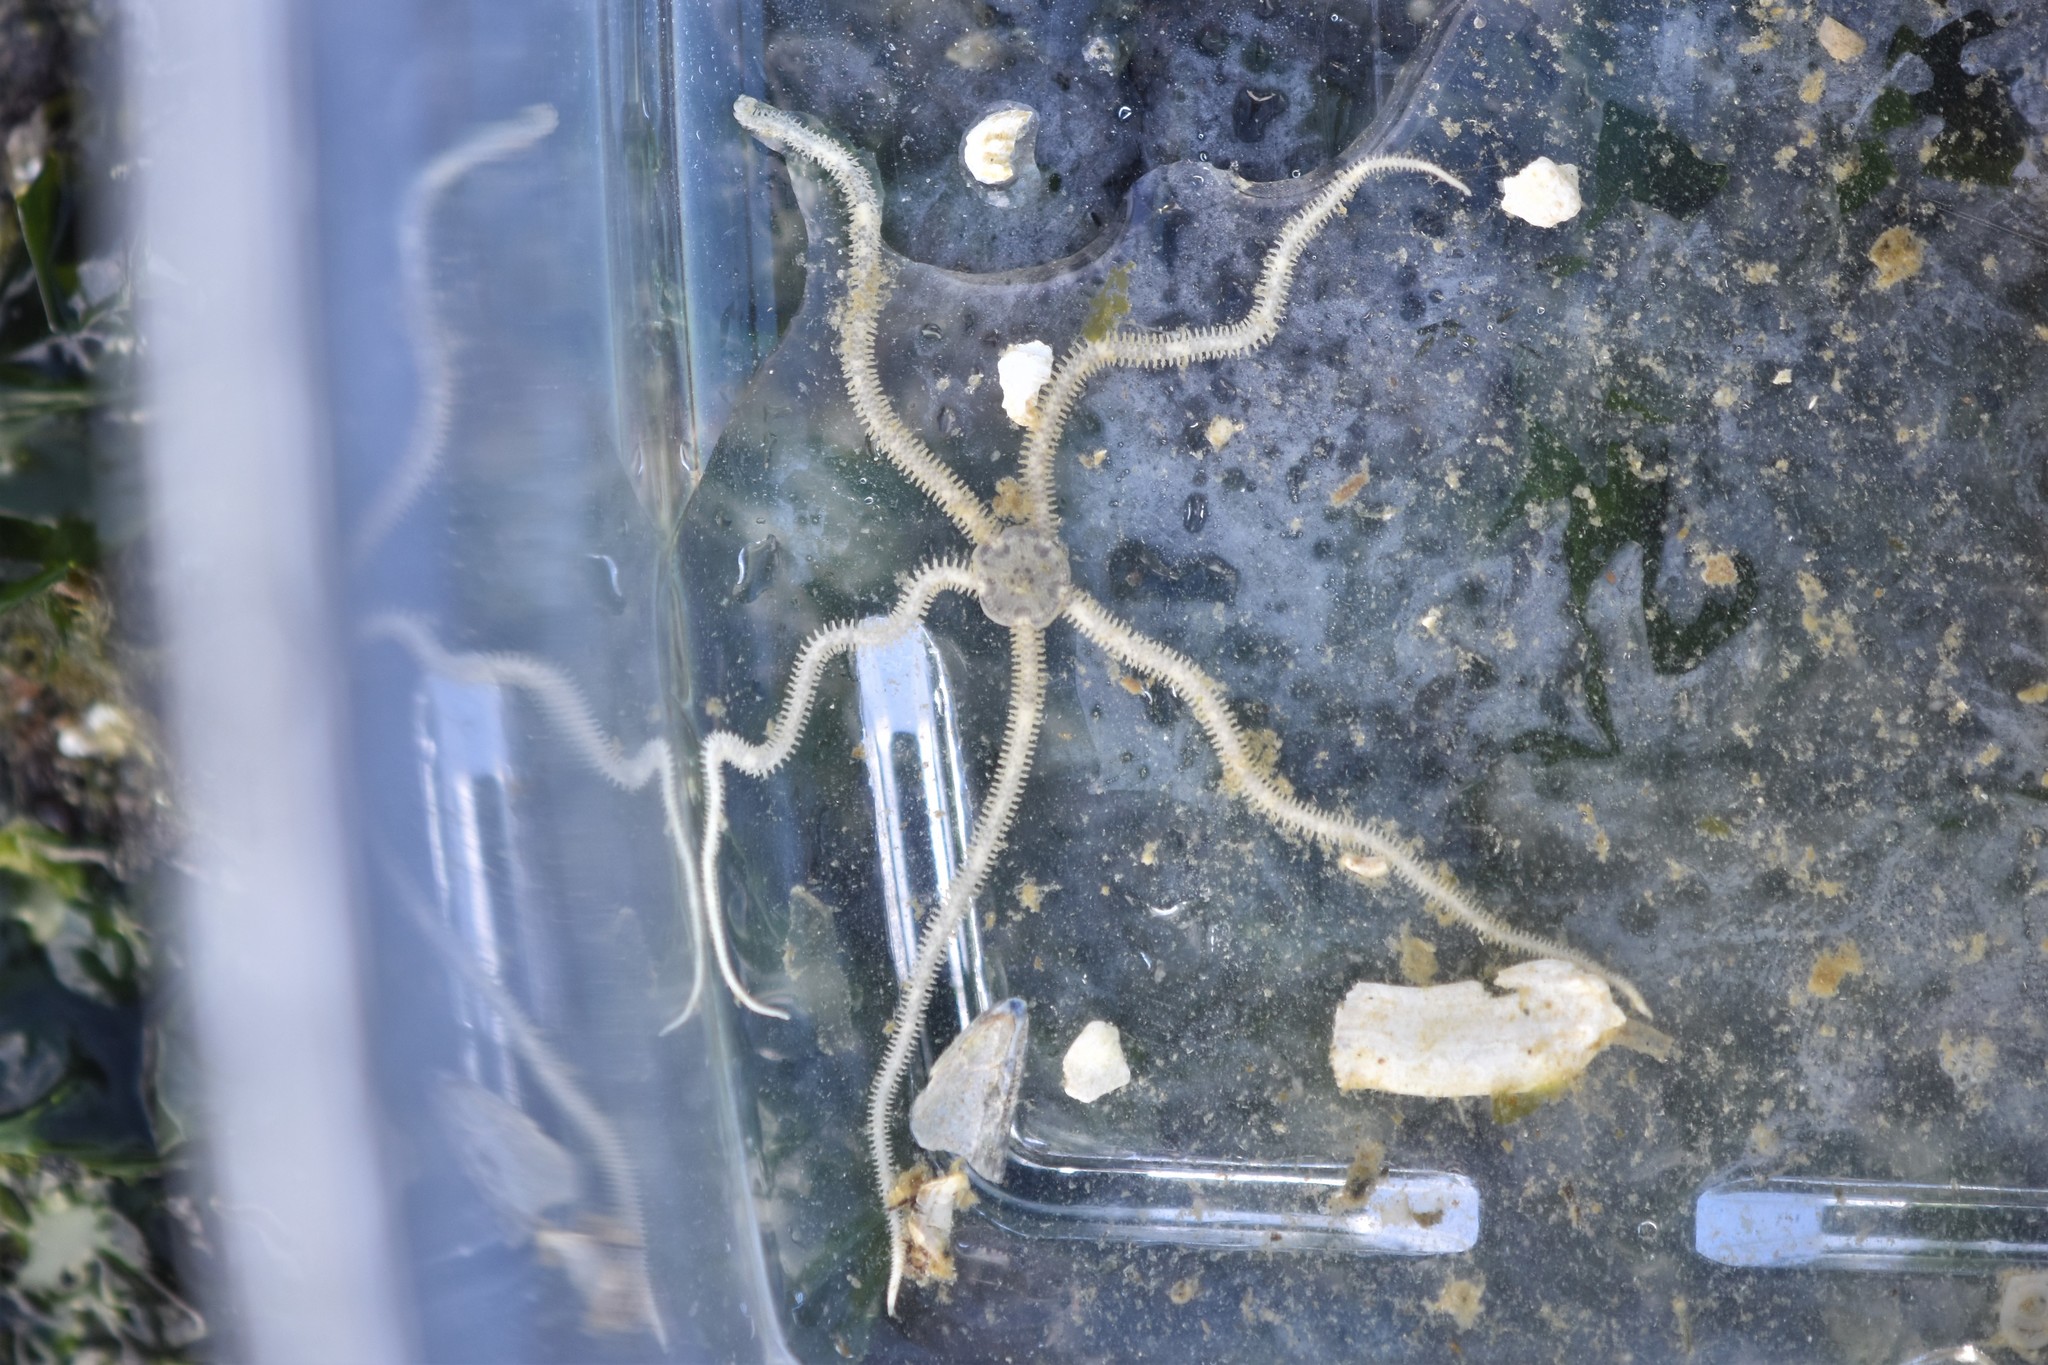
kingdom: Animalia
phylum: Echinodermata
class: Ophiuroidea
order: Amphilepidida
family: Amphiuridae
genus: Amphiodia
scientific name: Amphiodia occidentalis
